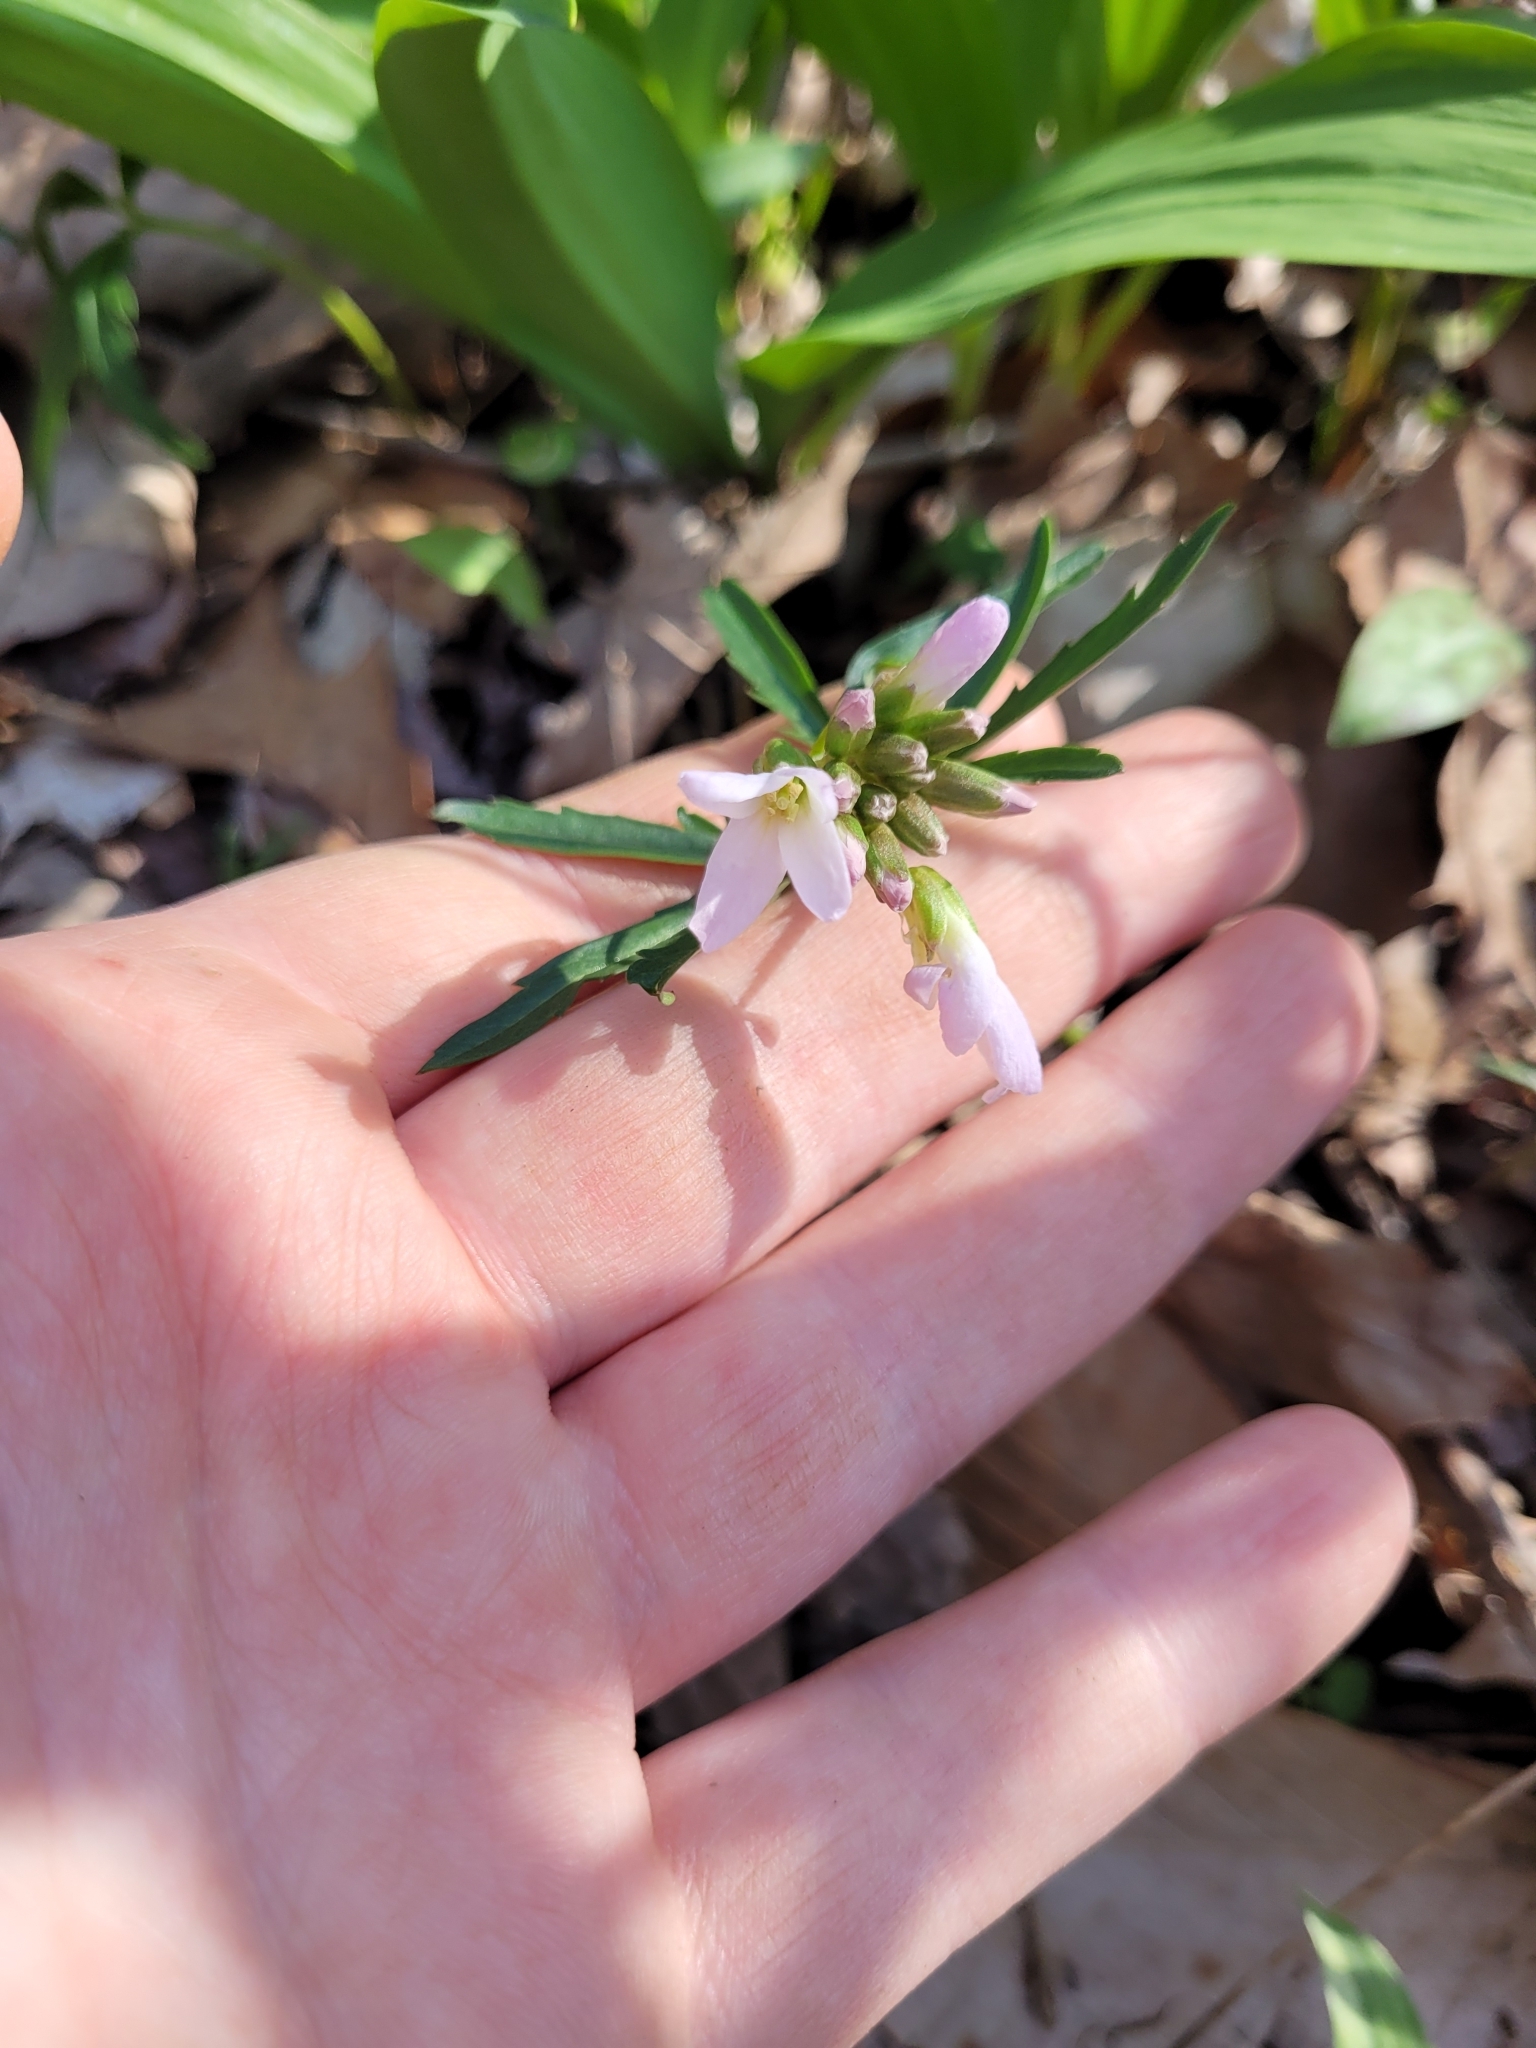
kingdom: Plantae
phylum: Tracheophyta
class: Magnoliopsida
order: Brassicales
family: Brassicaceae
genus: Cardamine
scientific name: Cardamine concatenata
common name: Cut-leaf toothcup
